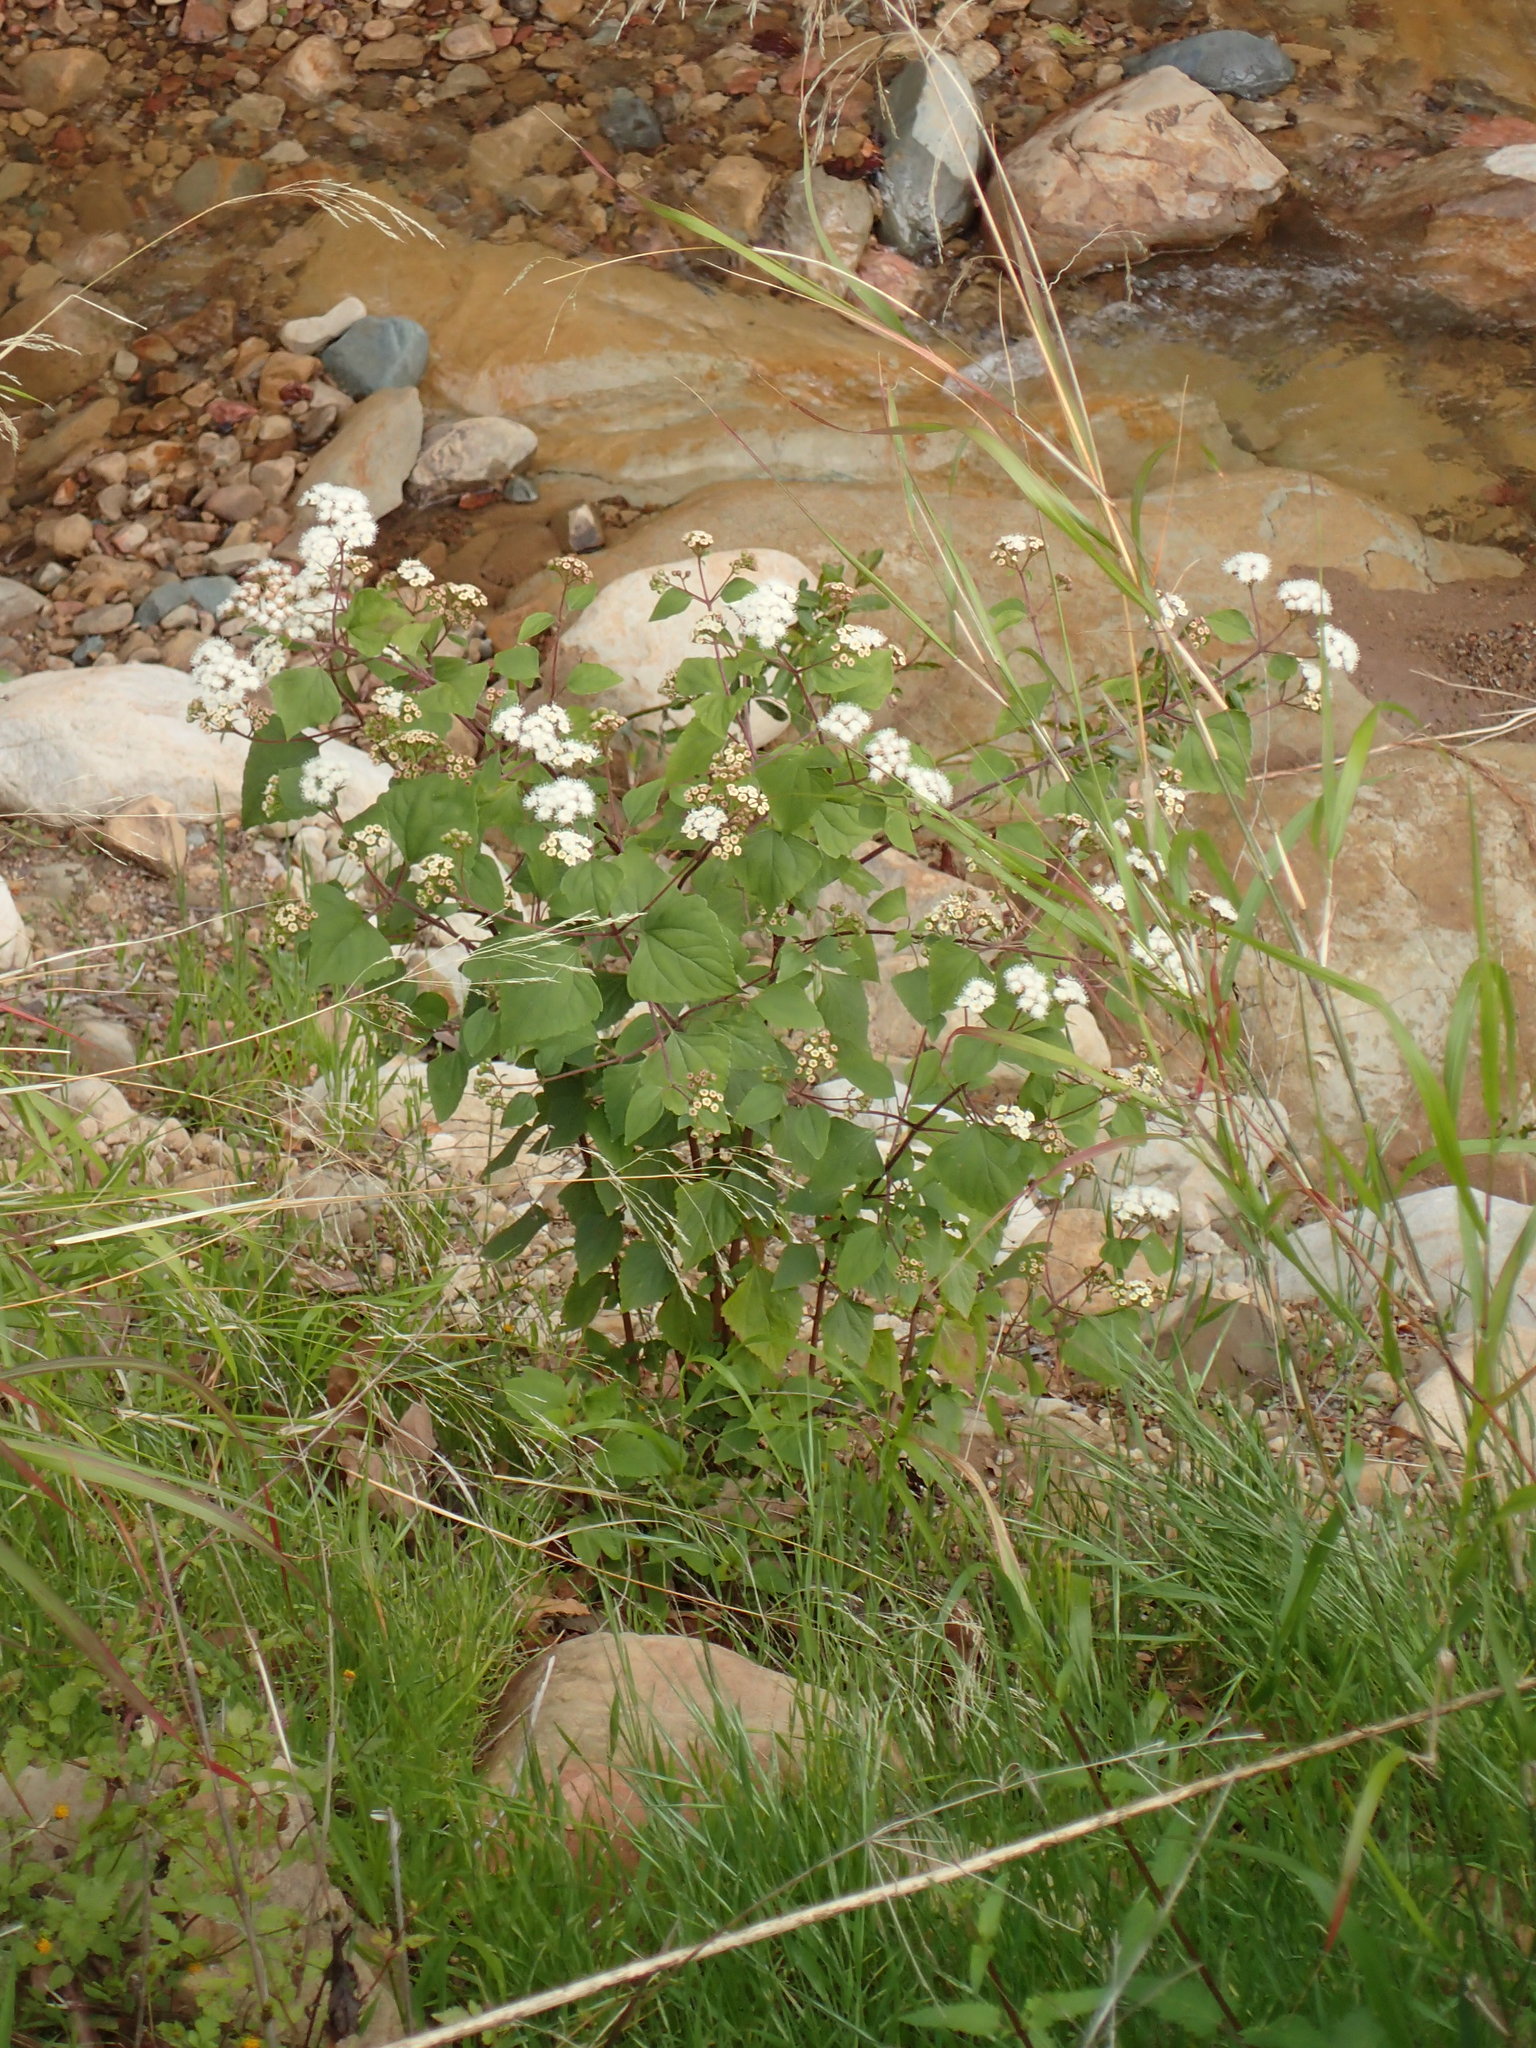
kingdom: Plantae
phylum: Tracheophyta
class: Magnoliopsida
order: Asterales
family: Asteraceae
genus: Ageratina
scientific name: Ageratina adenophora
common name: Sticky snakeroot
